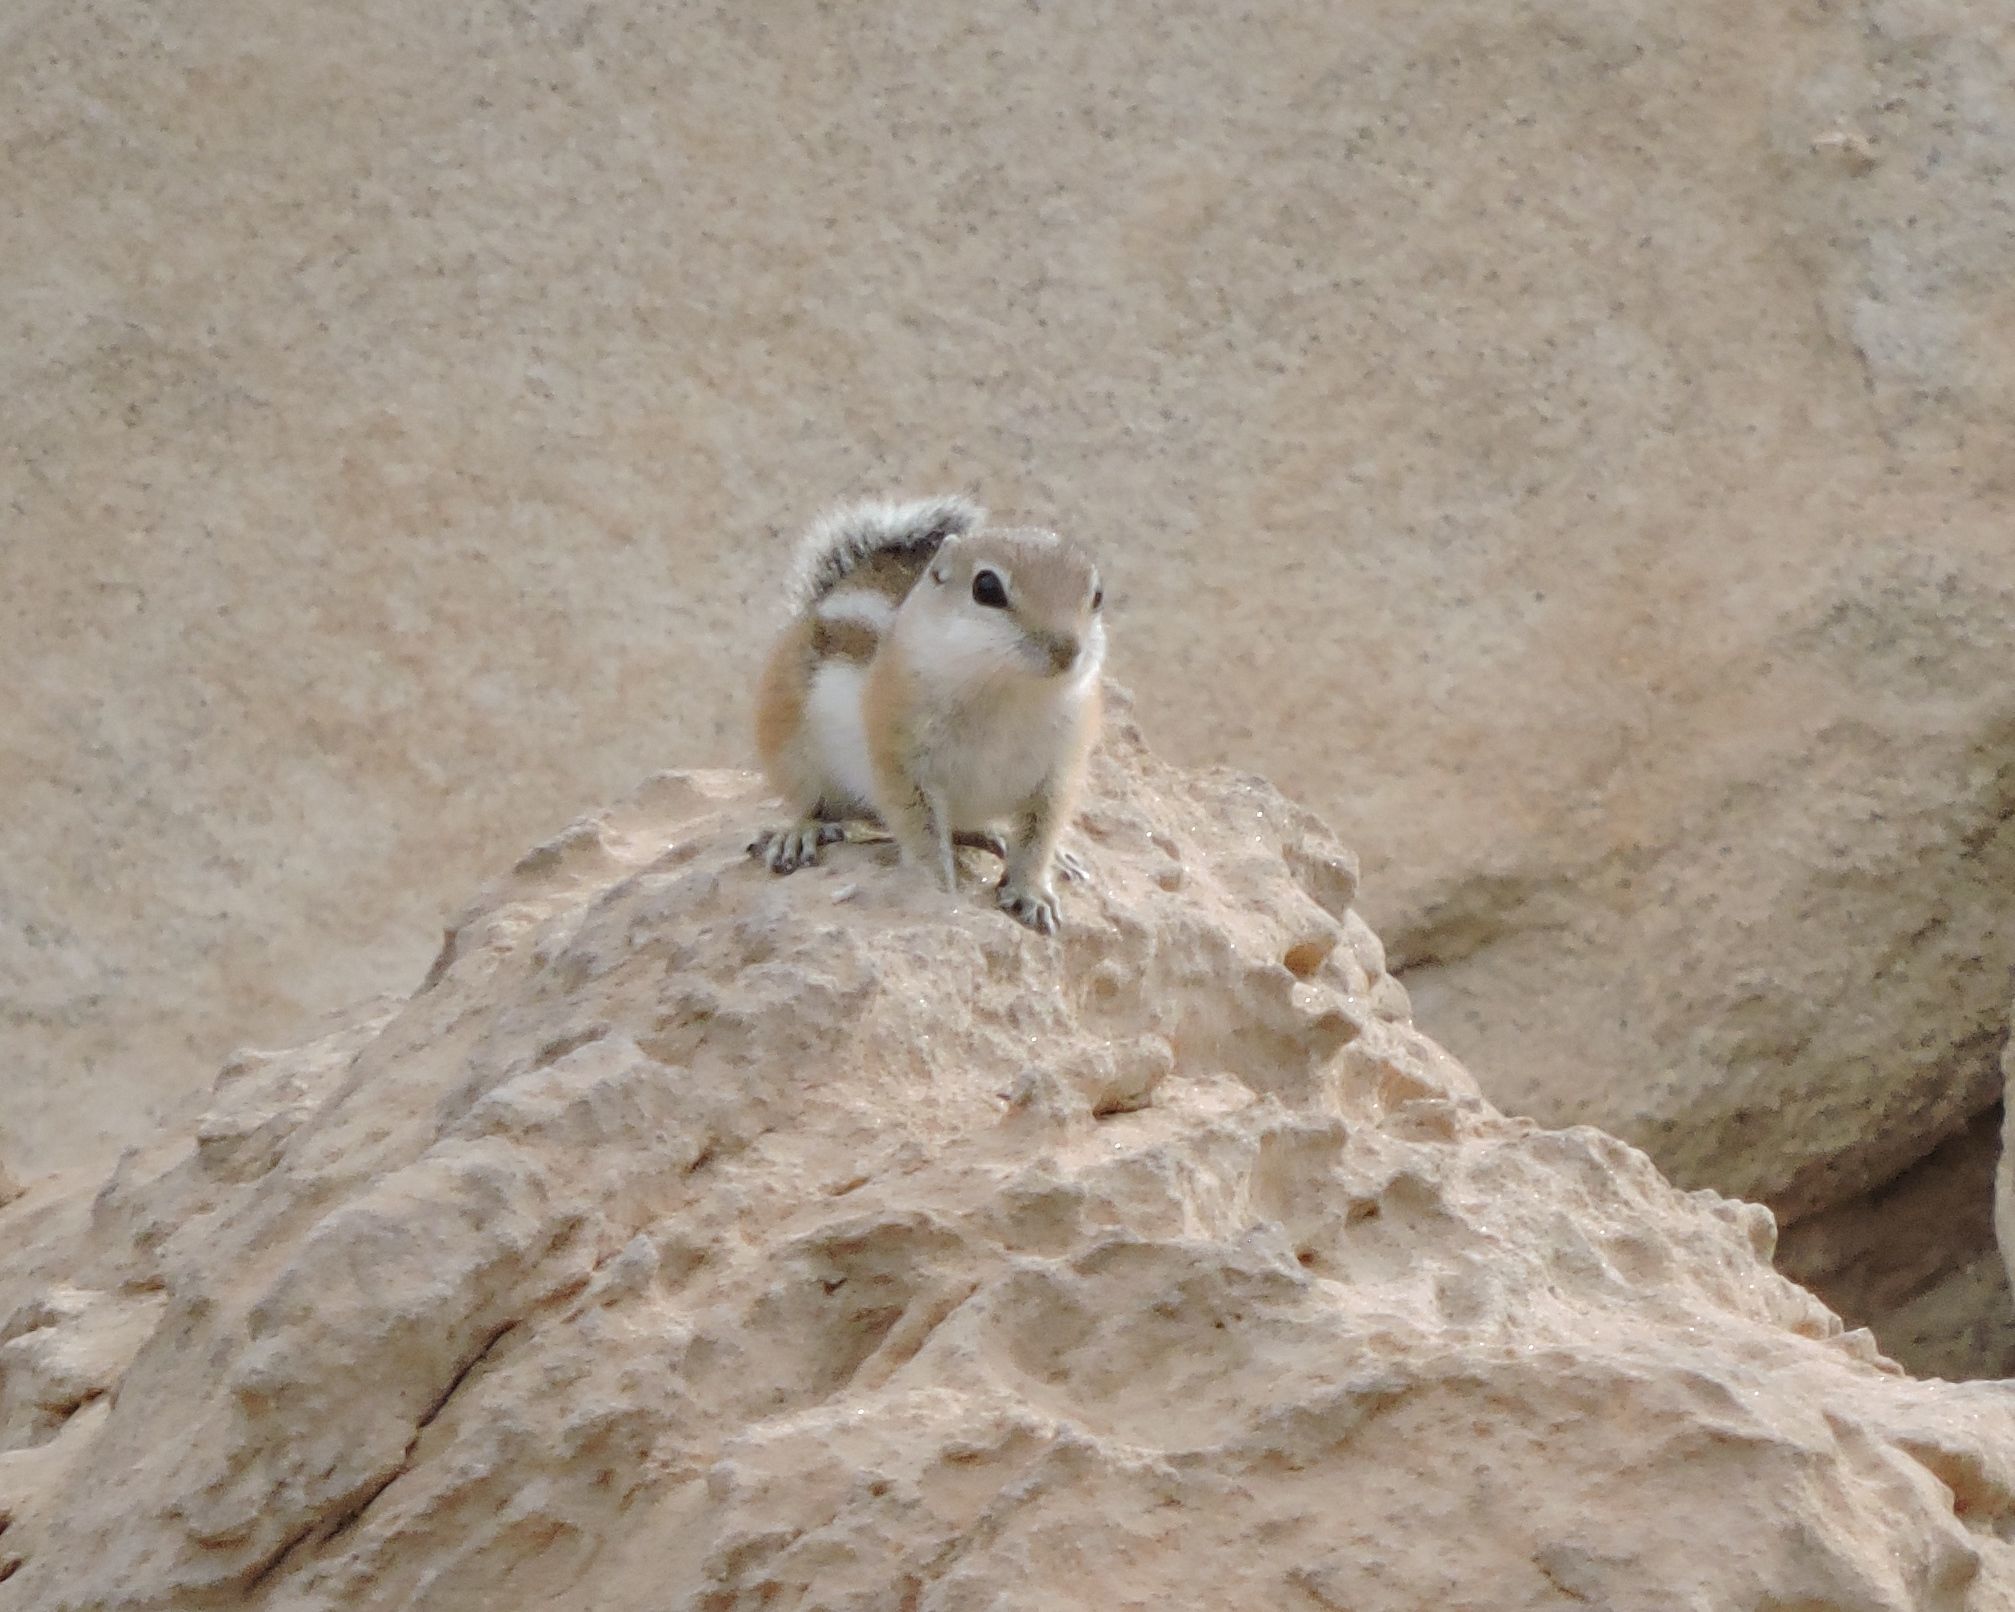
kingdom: Animalia
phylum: Chordata
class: Mammalia
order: Rodentia
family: Sciuridae
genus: Ammospermophilus
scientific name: Ammospermophilus leucurus
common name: White-tailed antelope squirrel
